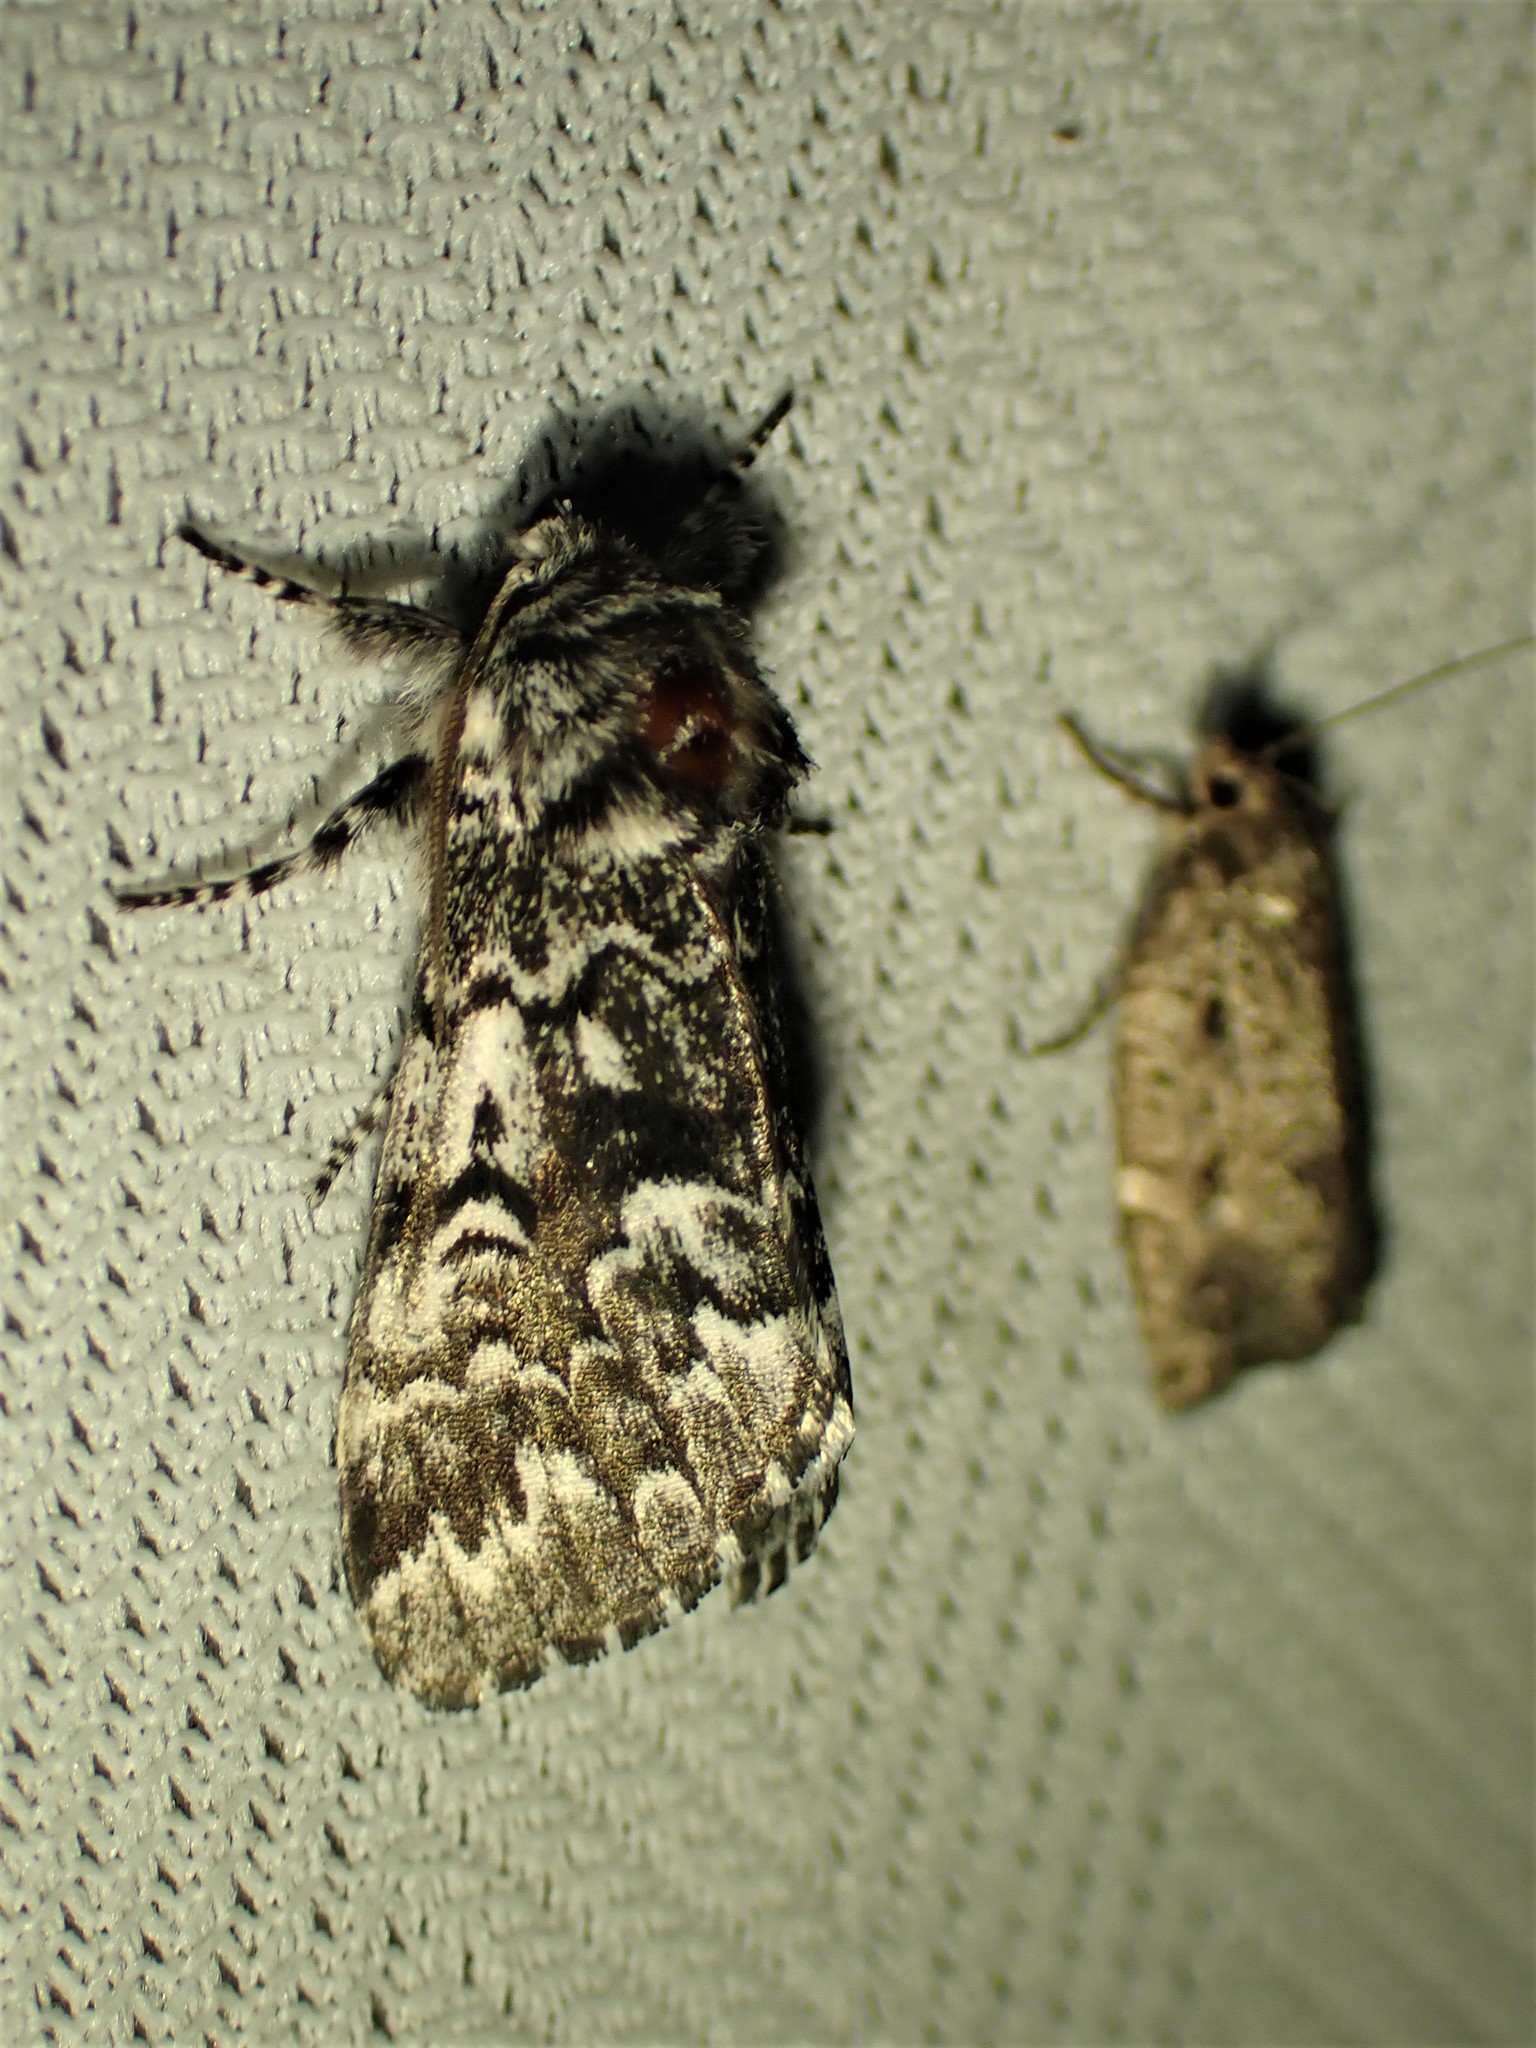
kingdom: Animalia
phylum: Arthropoda
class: Insecta
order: Lepidoptera
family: Noctuidae
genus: Panthea
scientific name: Panthea acronyctoides
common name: Black zigzag moth
